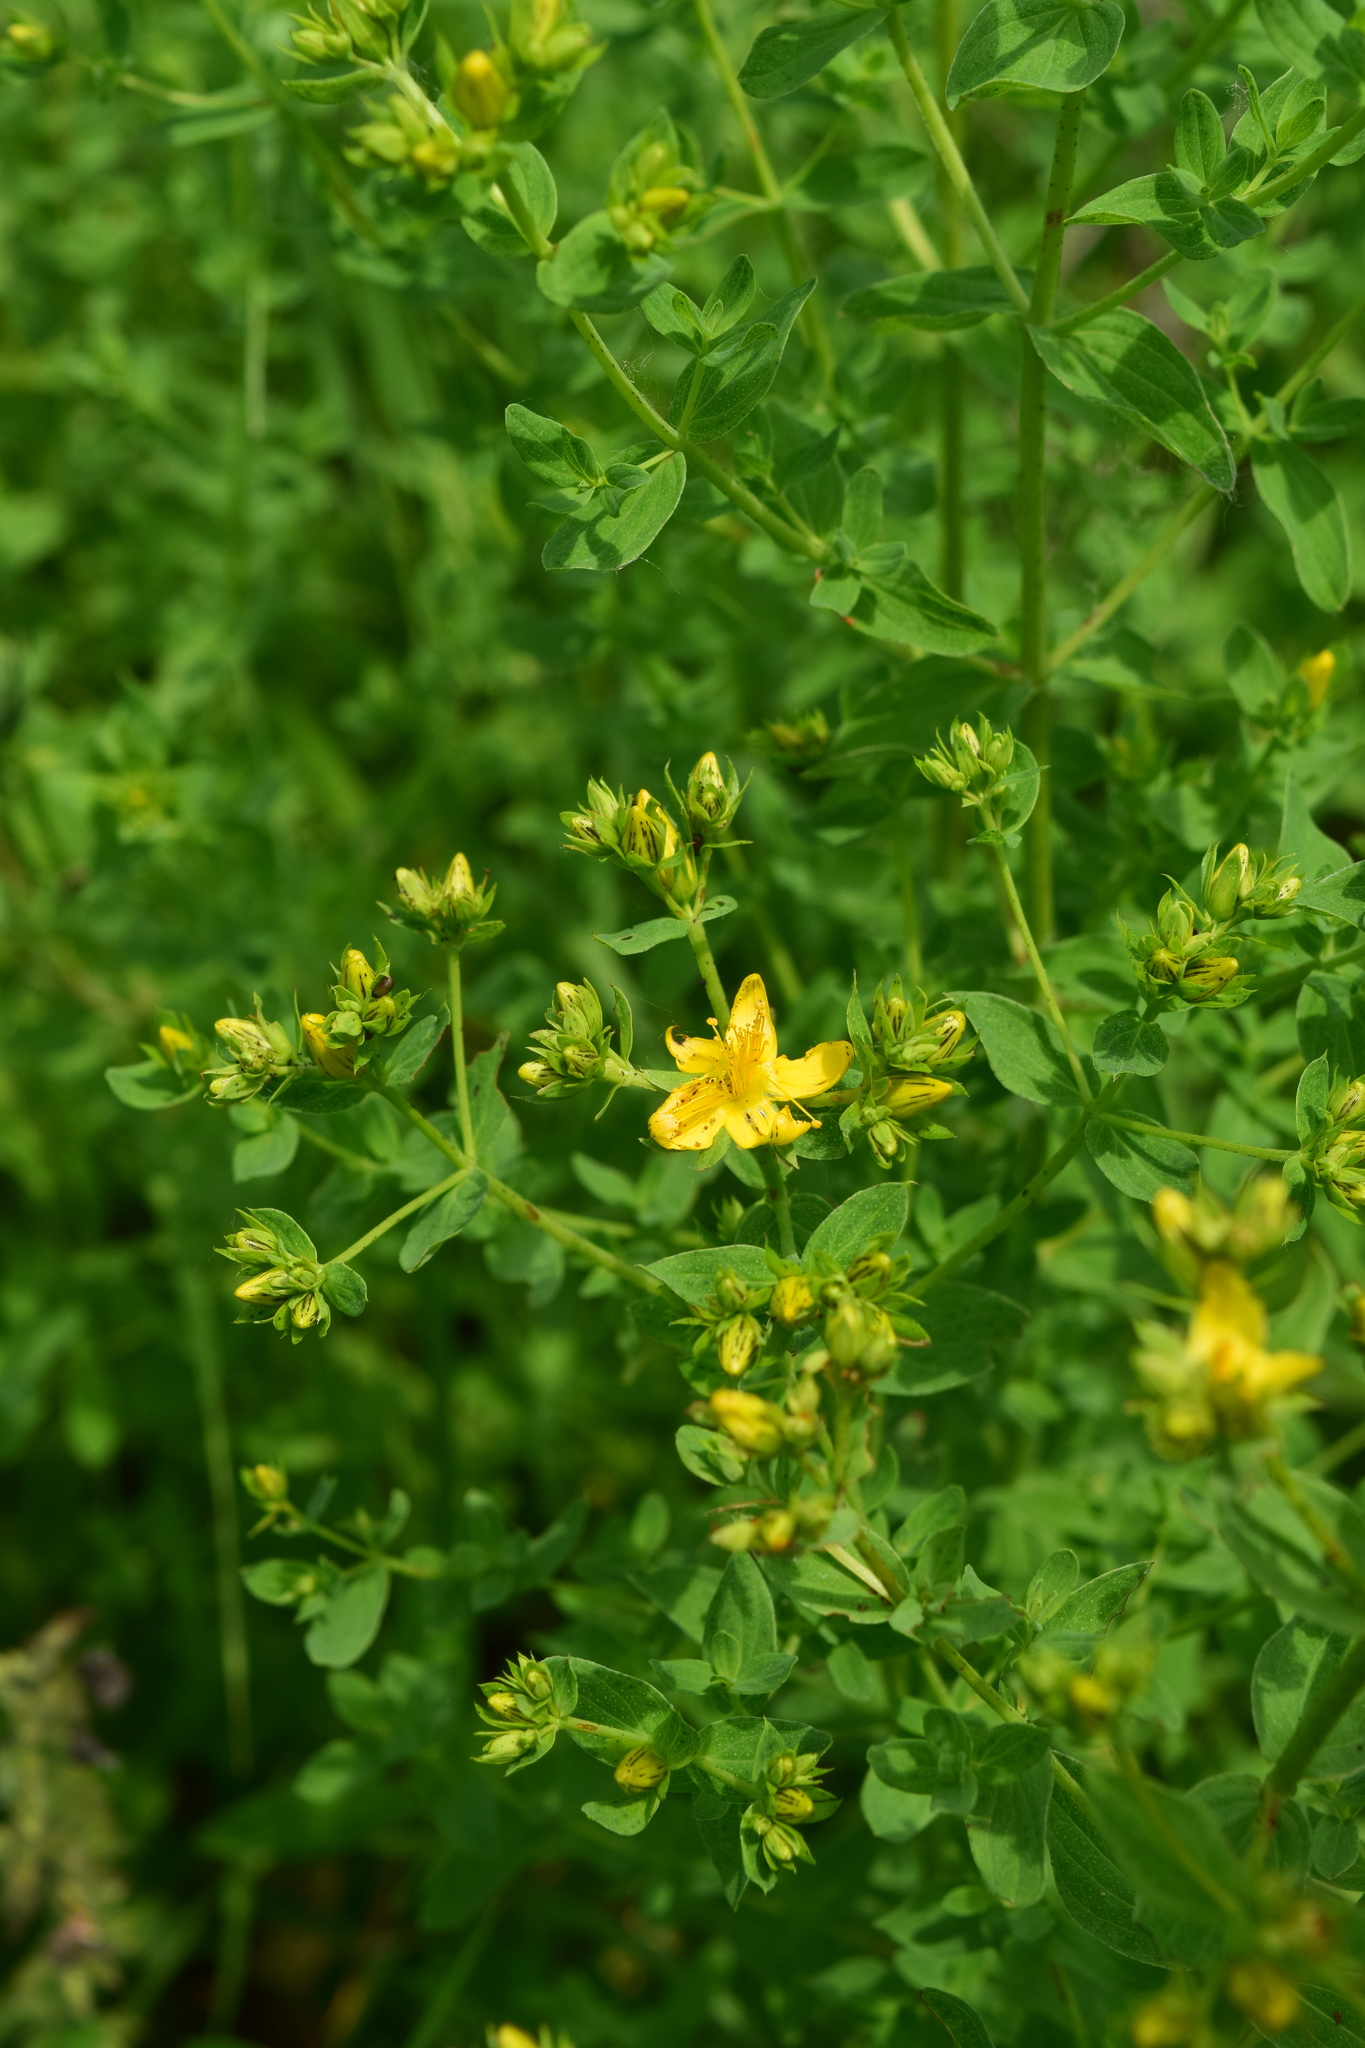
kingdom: Plantae
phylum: Tracheophyta
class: Magnoliopsida
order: Malpighiales
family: Hypericaceae
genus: Hypericum
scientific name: Hypericum perforatum
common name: Common st. johnswort
